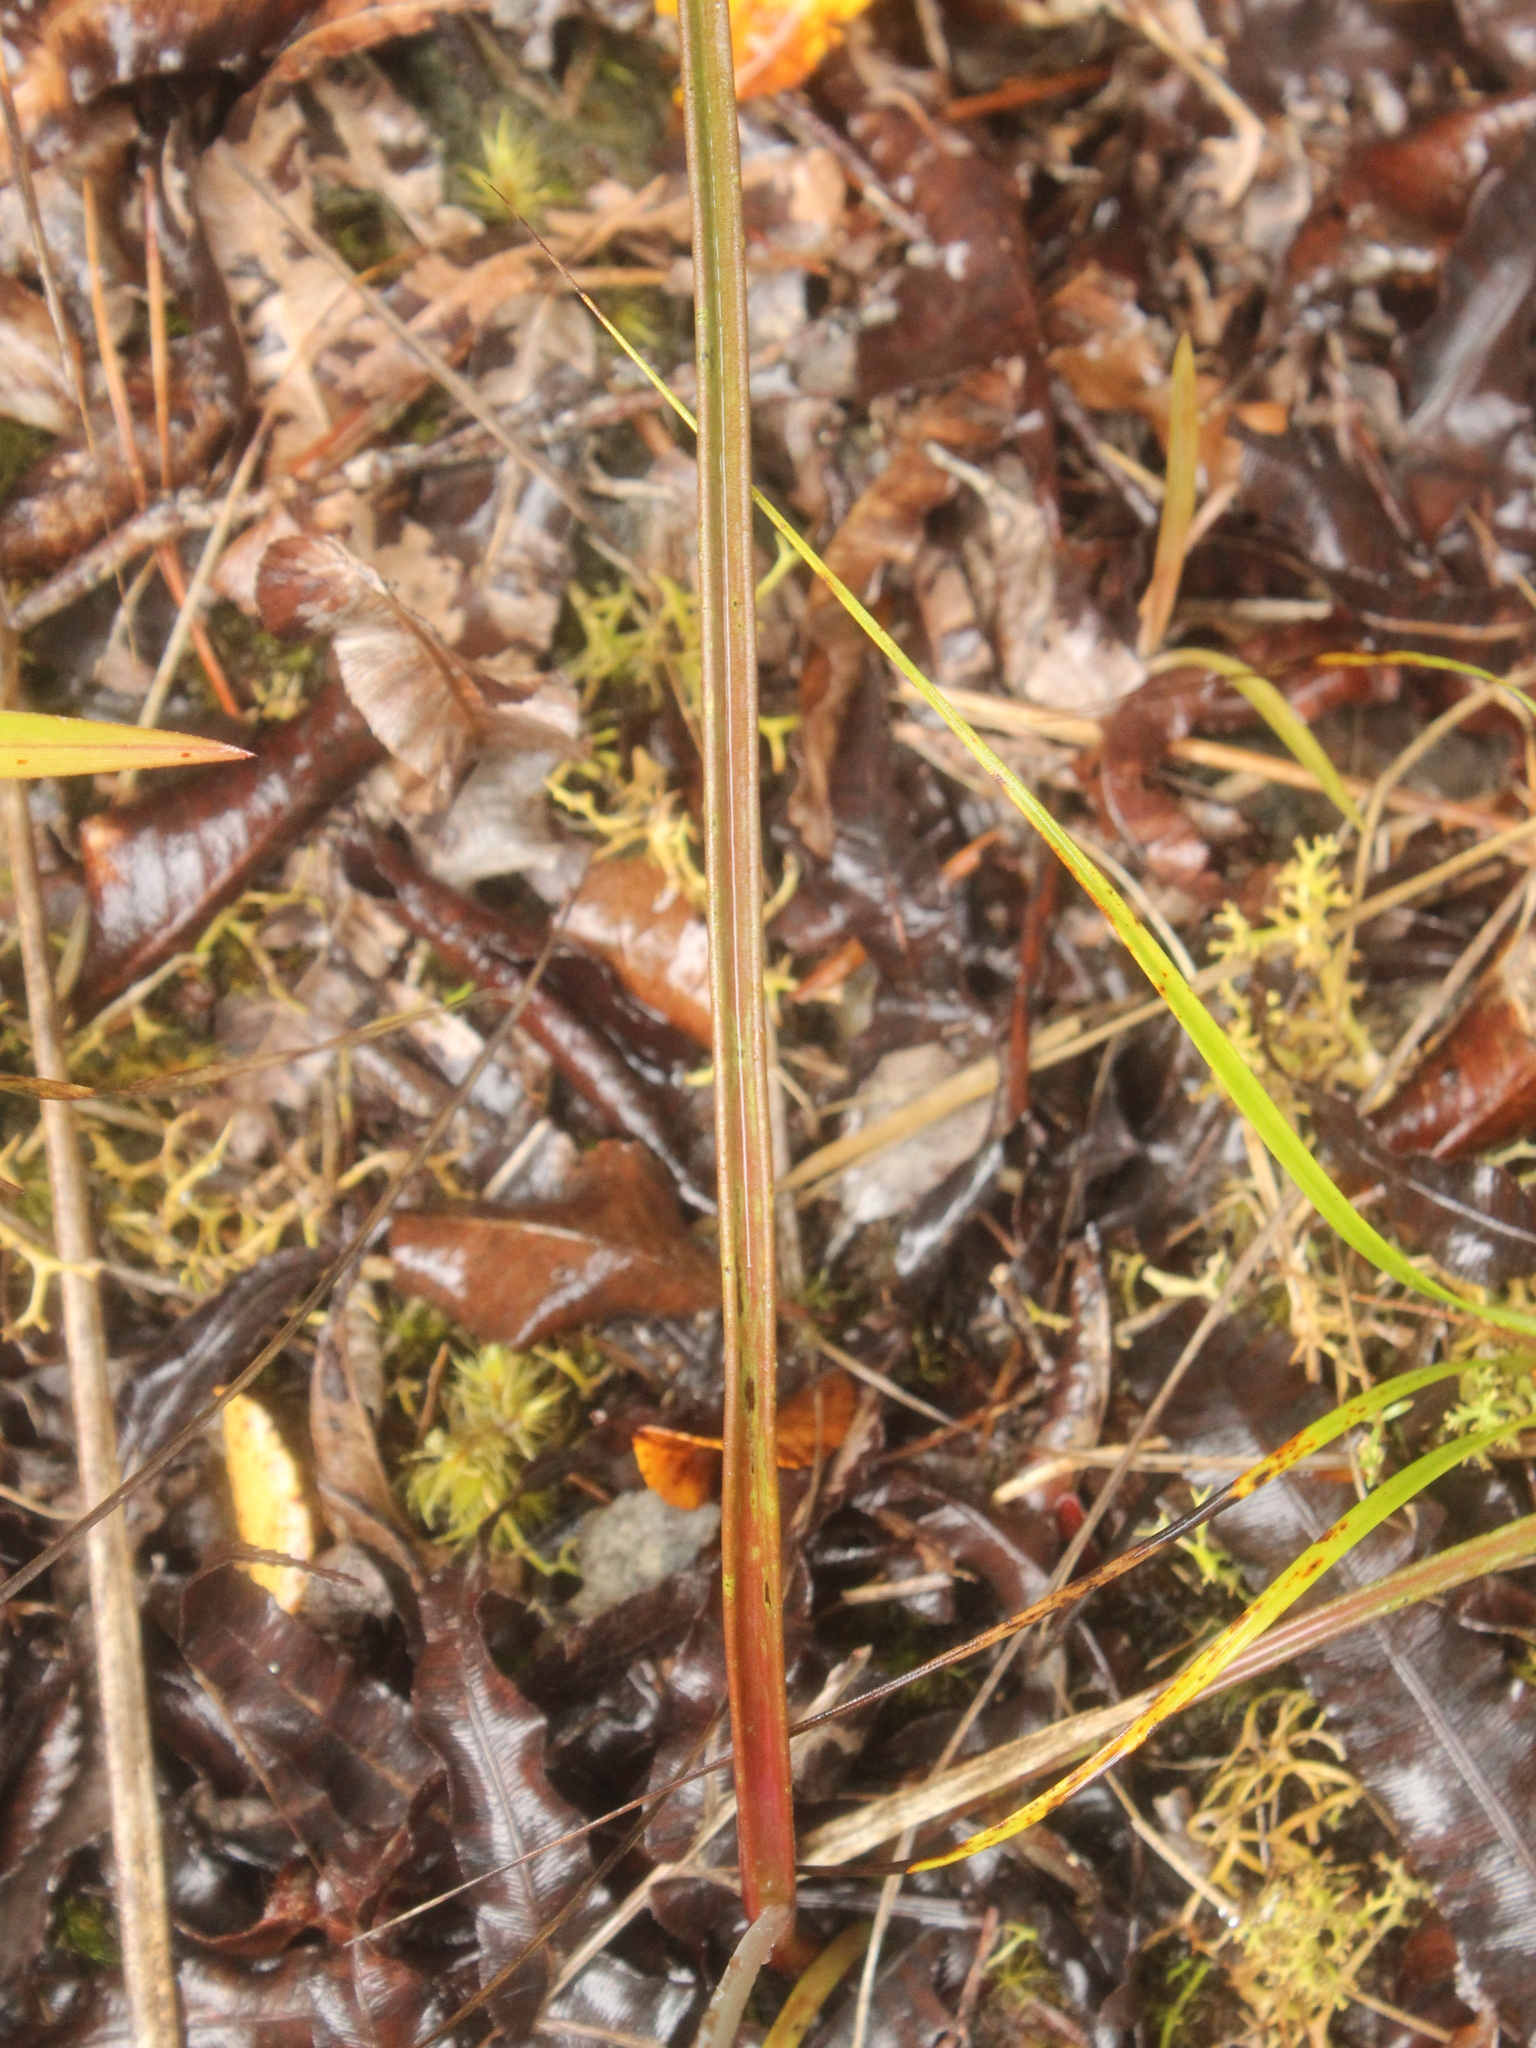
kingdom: Plantae
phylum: Tracheophyta
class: Liliopsida
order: Asparagales
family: Orchidaceae
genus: Thelymitra
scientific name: Thelymitra pulchella
